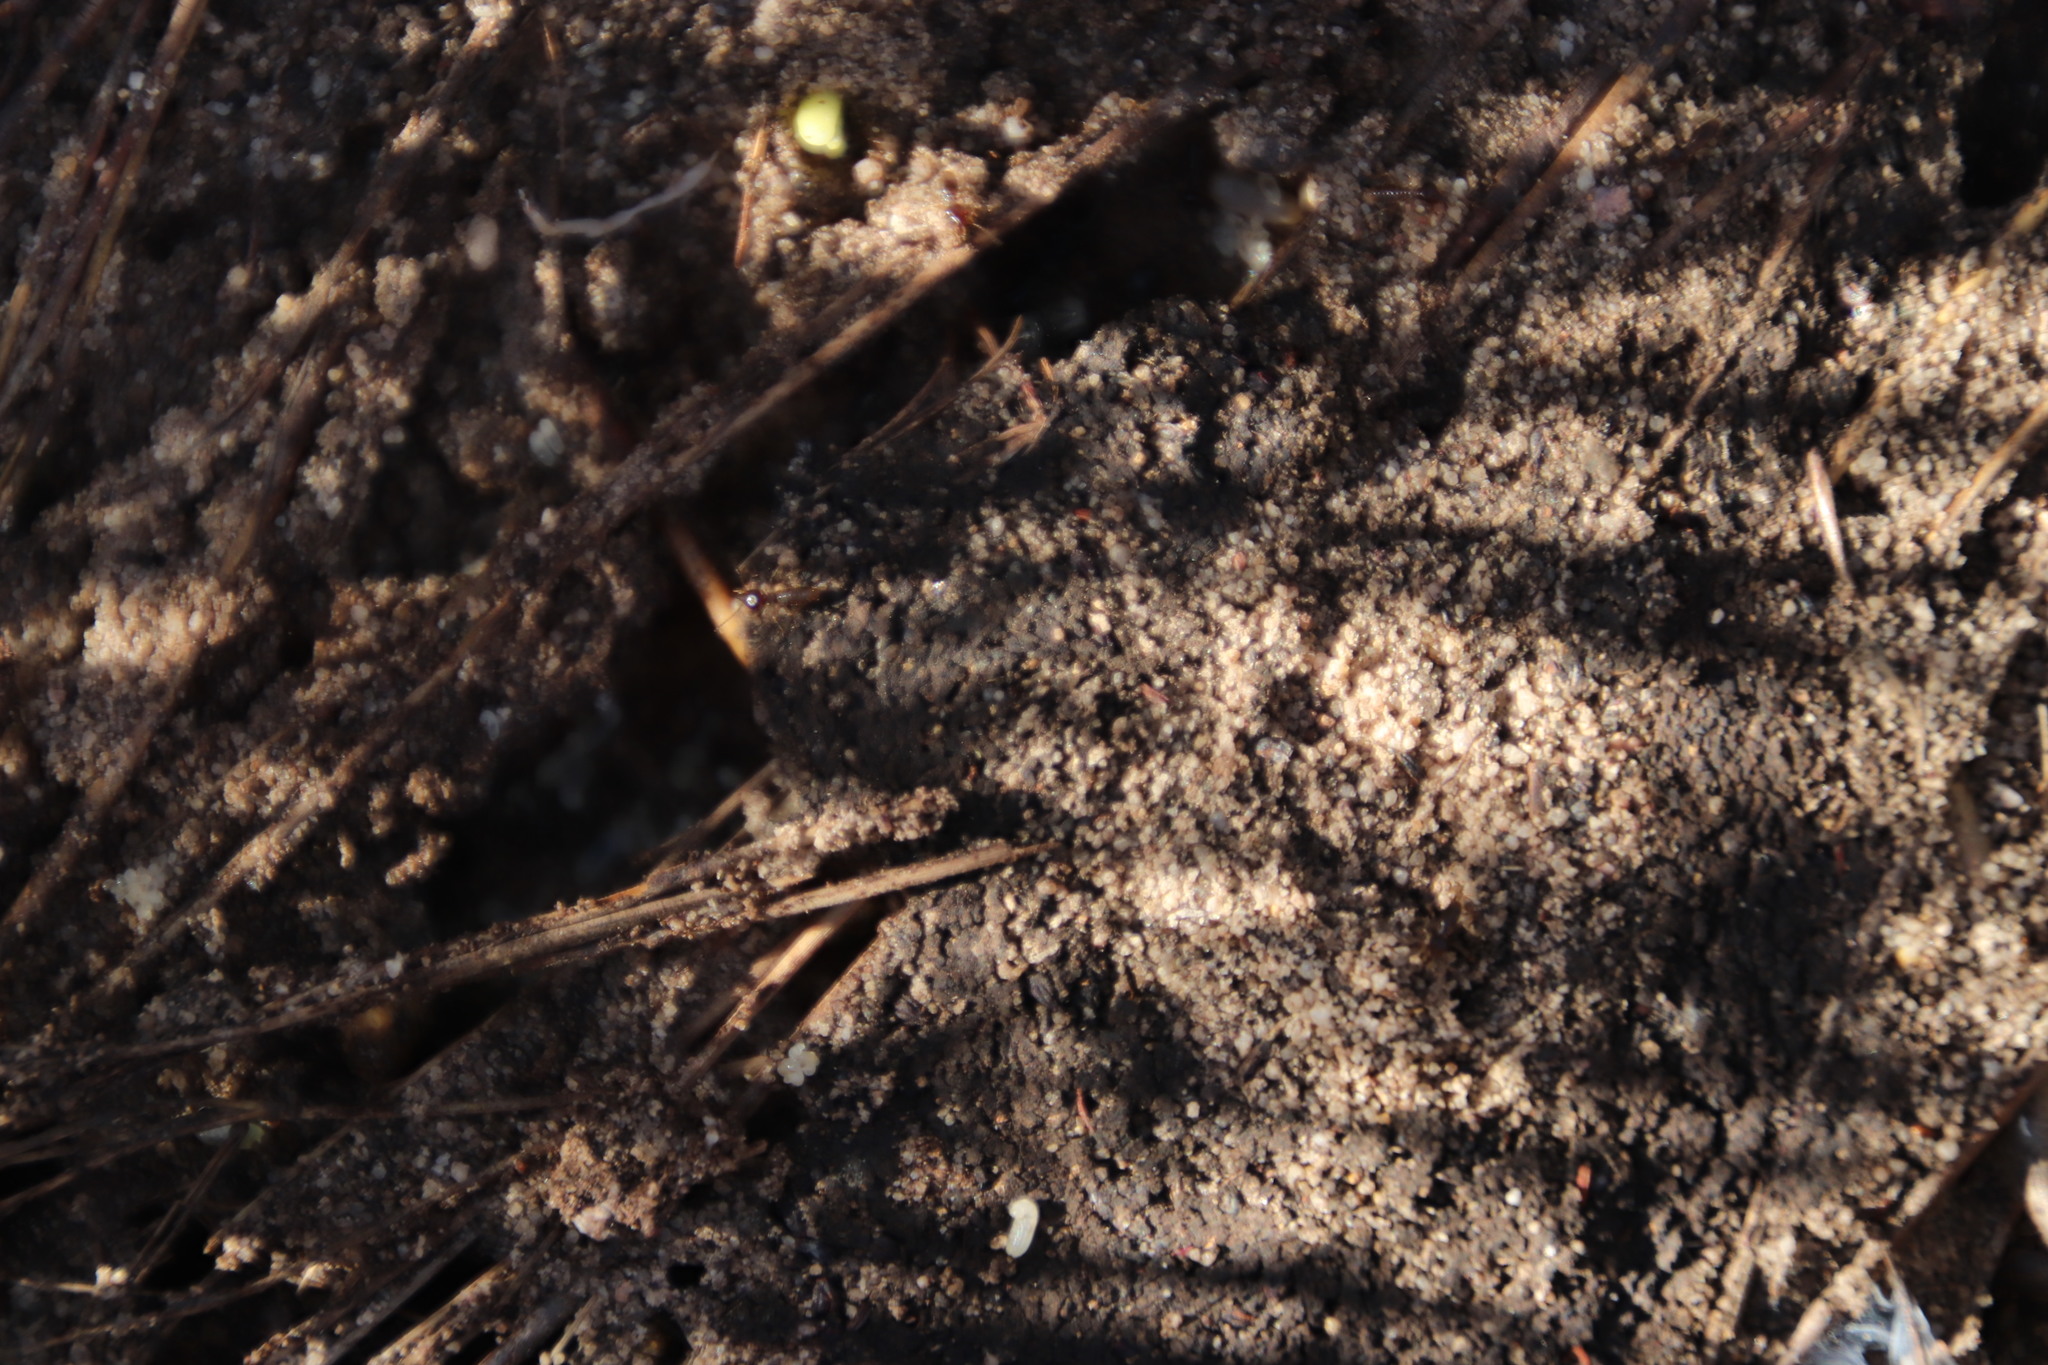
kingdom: Animalia
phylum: Arthropoda
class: Insecta
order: Hymenoptera
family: Formicidae
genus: Camponotus
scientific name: Camponotus niveosetosus
